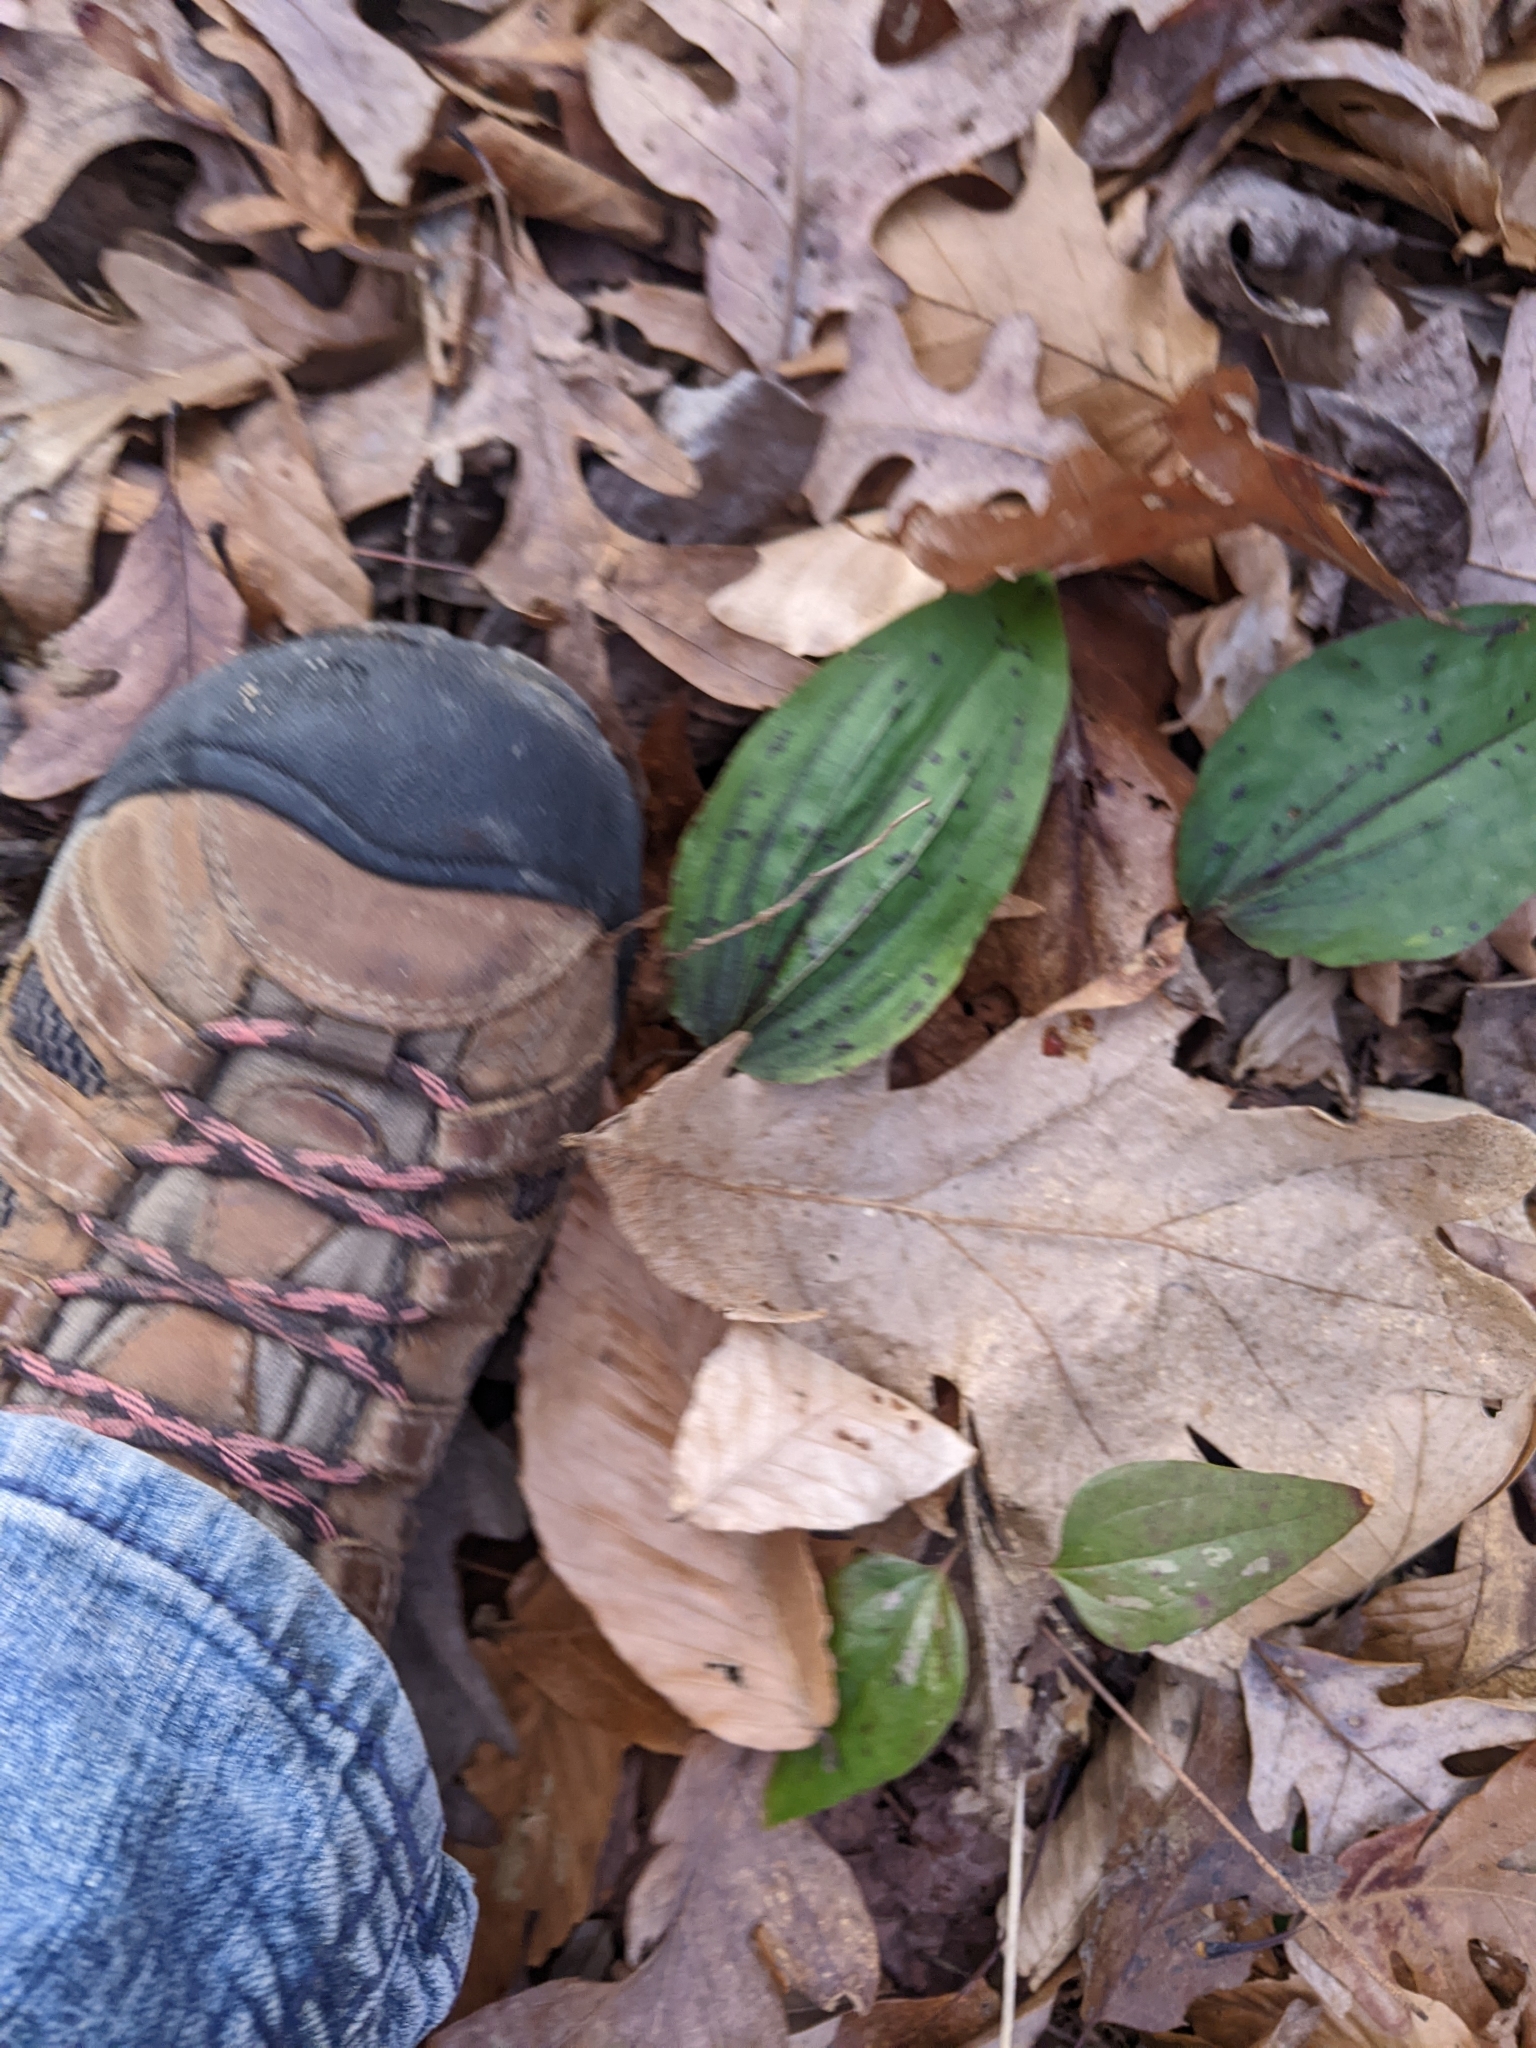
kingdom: Plantae
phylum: Tracheophyta
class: Liliopsida
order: Asparagales
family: Orchidaceae
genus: Tipularia
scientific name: Tipularia discolor
